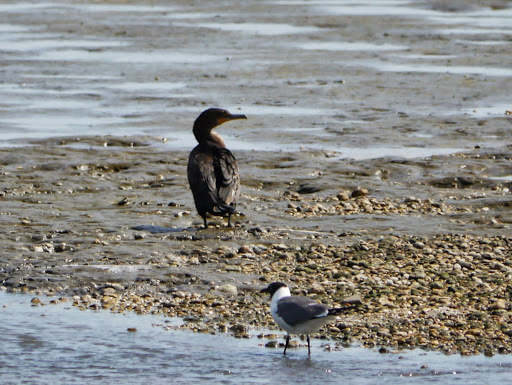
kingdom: Animalia
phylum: Chordata
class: Aves
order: Suliformes
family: Phalacrocoracidae
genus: Phalacrocorax
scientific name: Phalacrocorax auritus
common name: Double-crested cormorant
